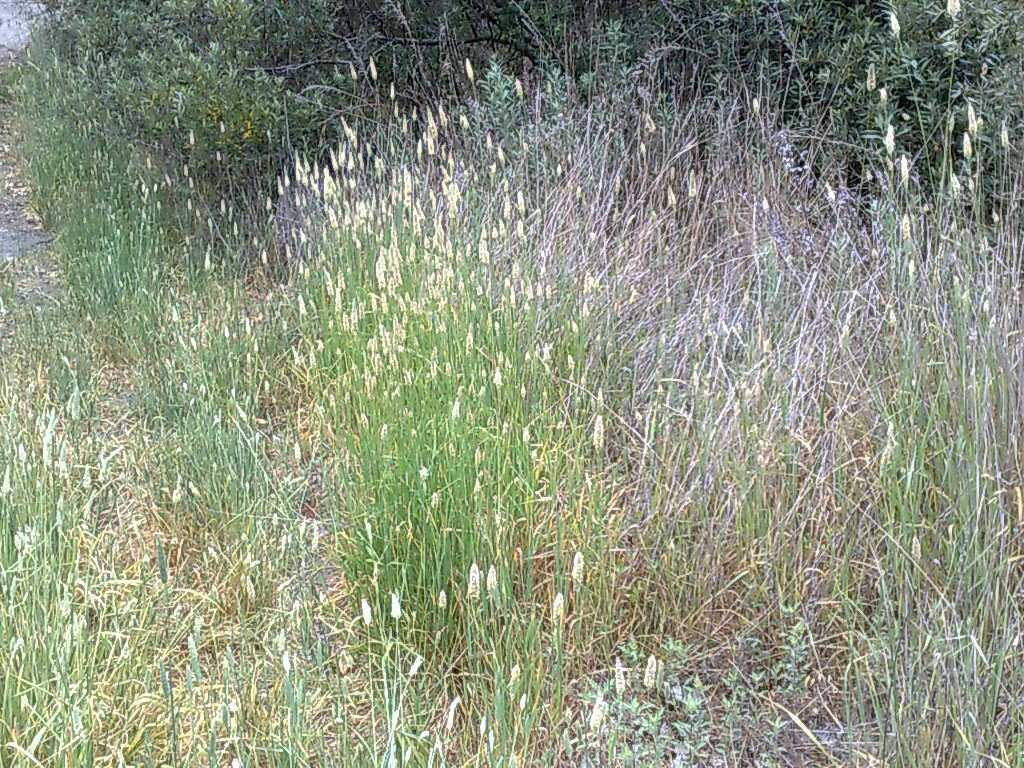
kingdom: Plantae
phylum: Tracheophyta
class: Liliopsida
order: Poales
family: Poaceae
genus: Phalaris
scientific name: Phalaris aquatica
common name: Bulbous canary-grass
